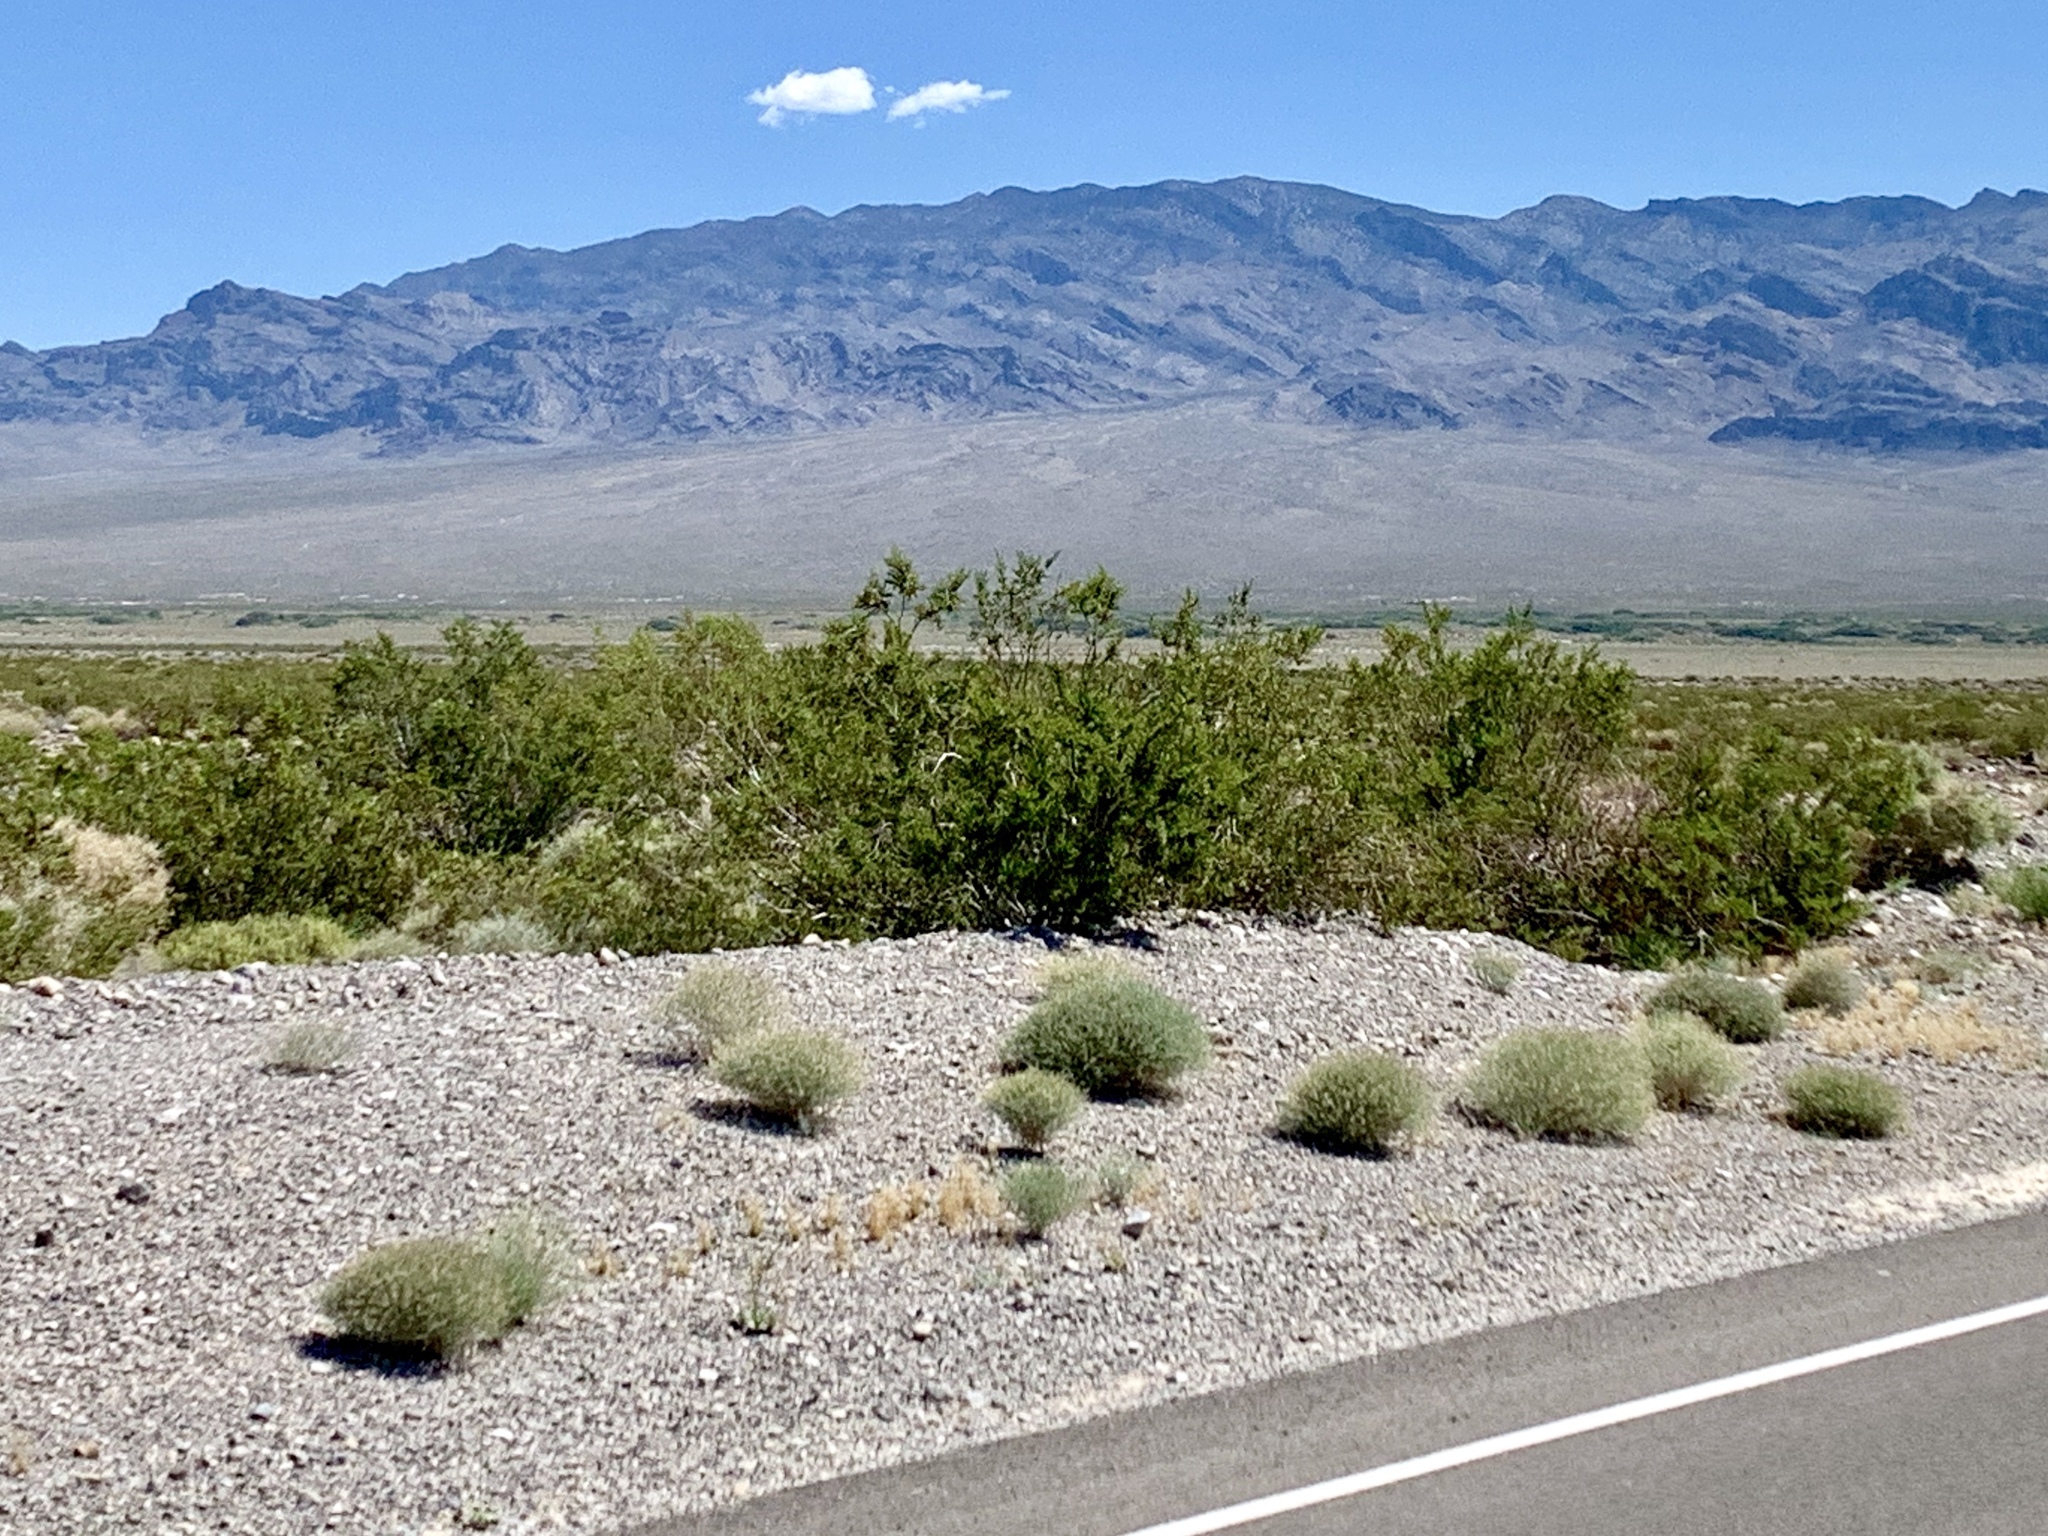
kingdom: Plantae
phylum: Tracheophyta
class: Magnoliopsida
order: Zygophyllales
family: Zygophyllaceae
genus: Larrea
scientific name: Larrea tridentata
